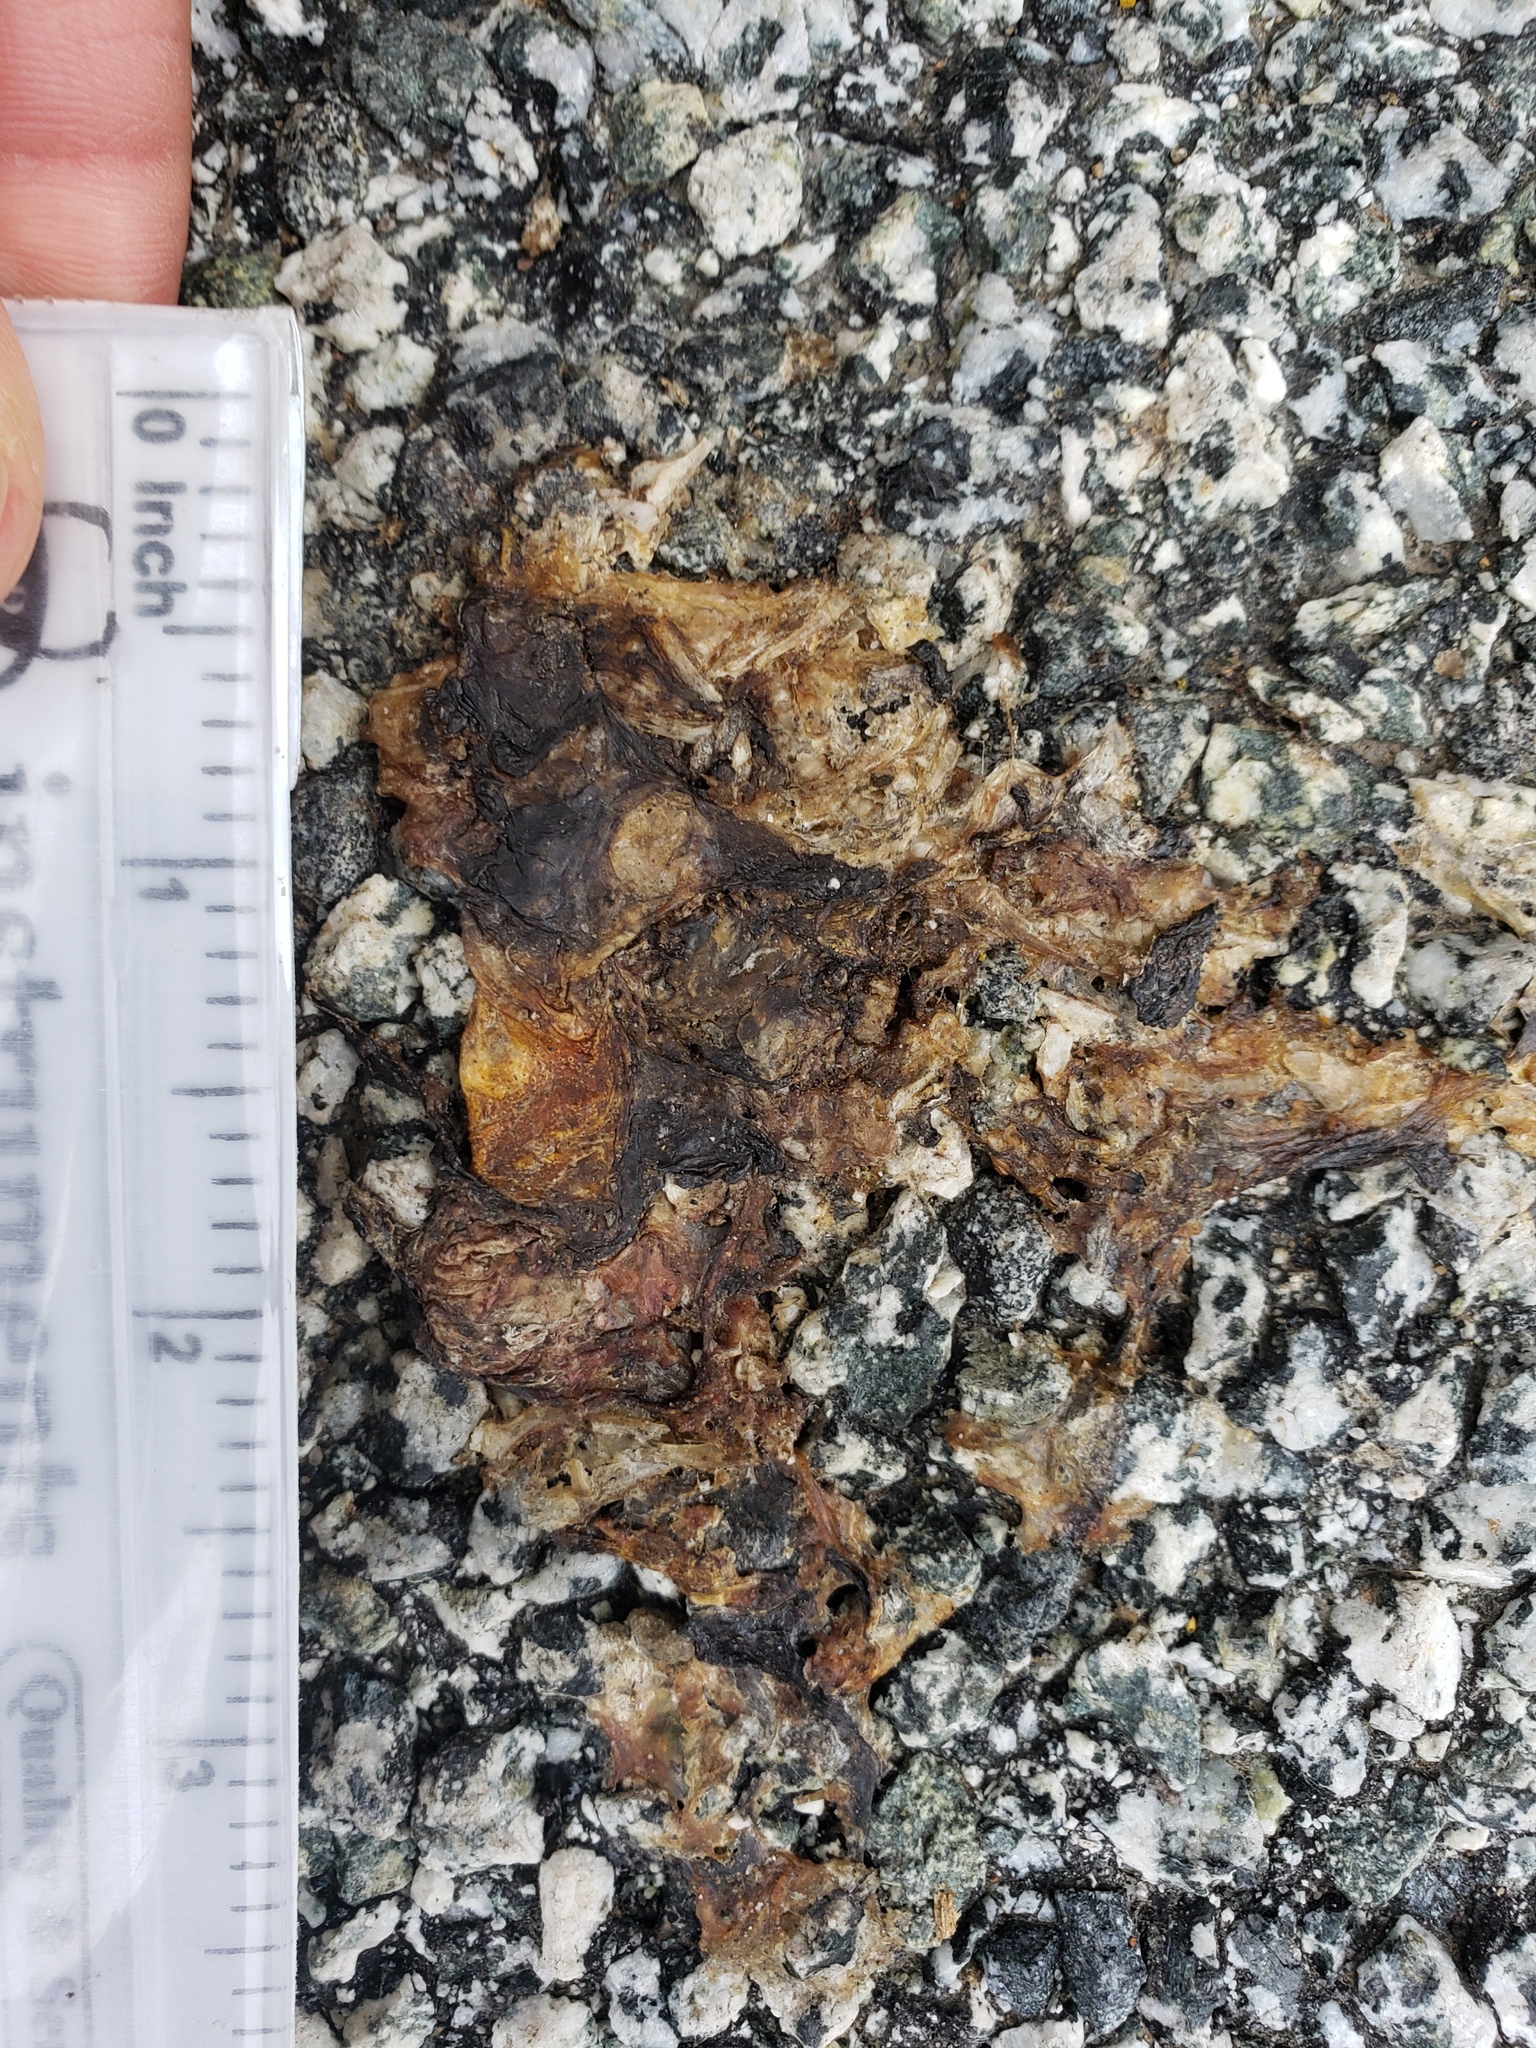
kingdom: Animalia
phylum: Chordata
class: Amphibia
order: Caudata
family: Salamandridae
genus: Taricha
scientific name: Taricha
